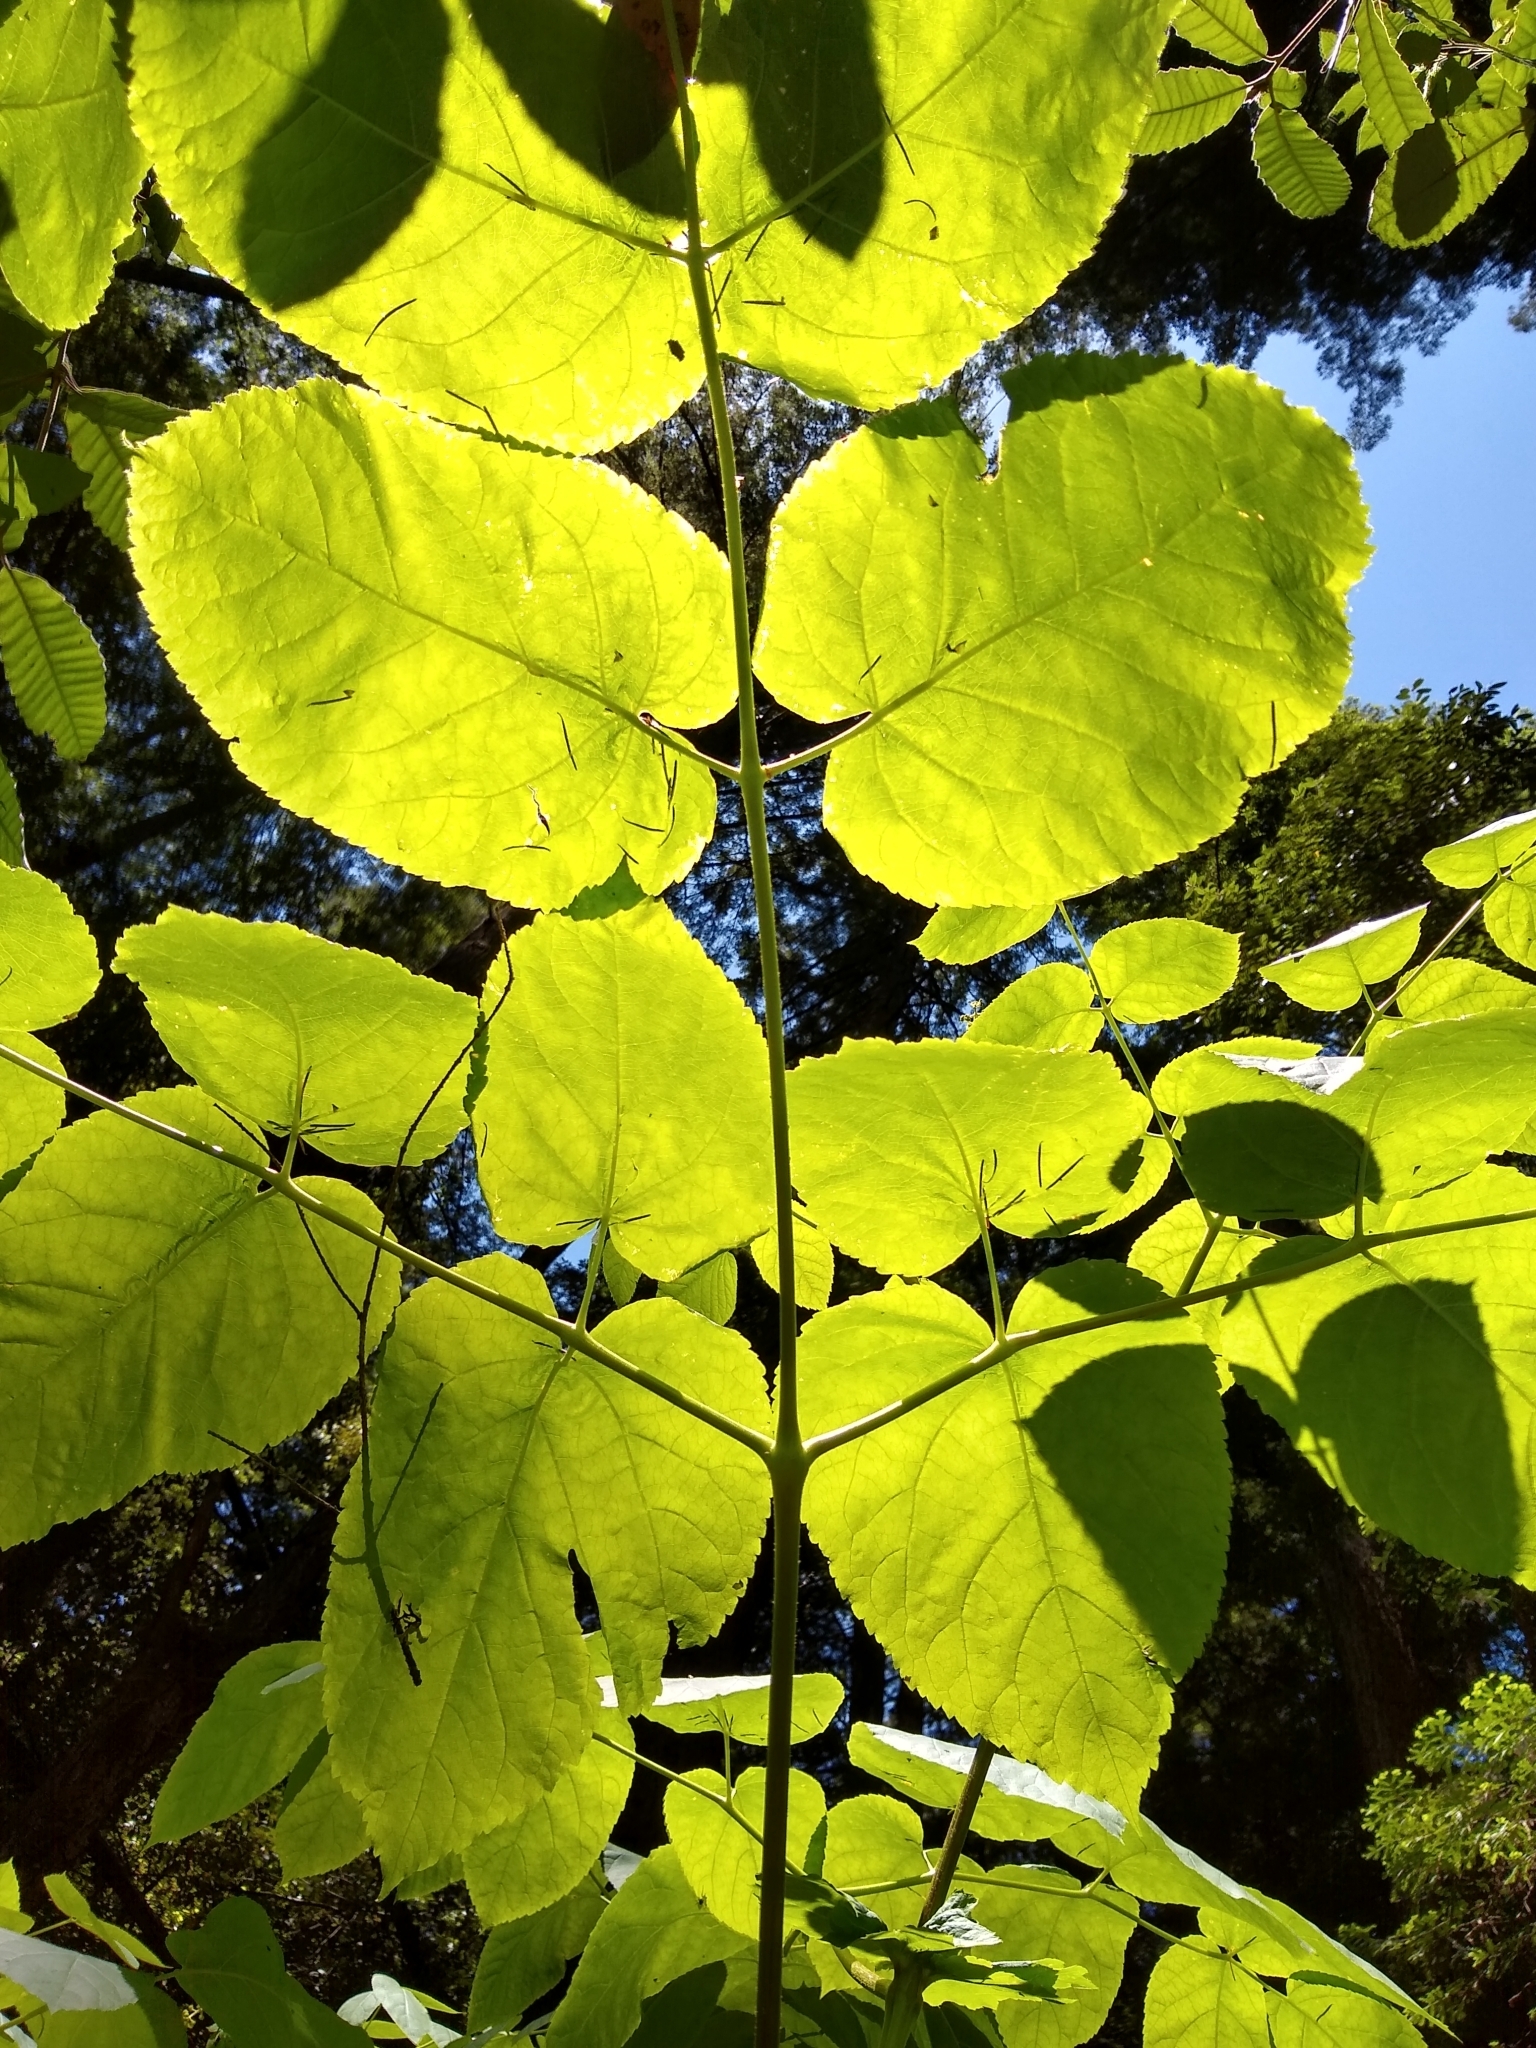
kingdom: Plantae
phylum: Tracheophyta
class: Magnoliopsida
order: Apiales
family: Araliaceae
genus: Aralia
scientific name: Aralia californica
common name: California-ginseng
